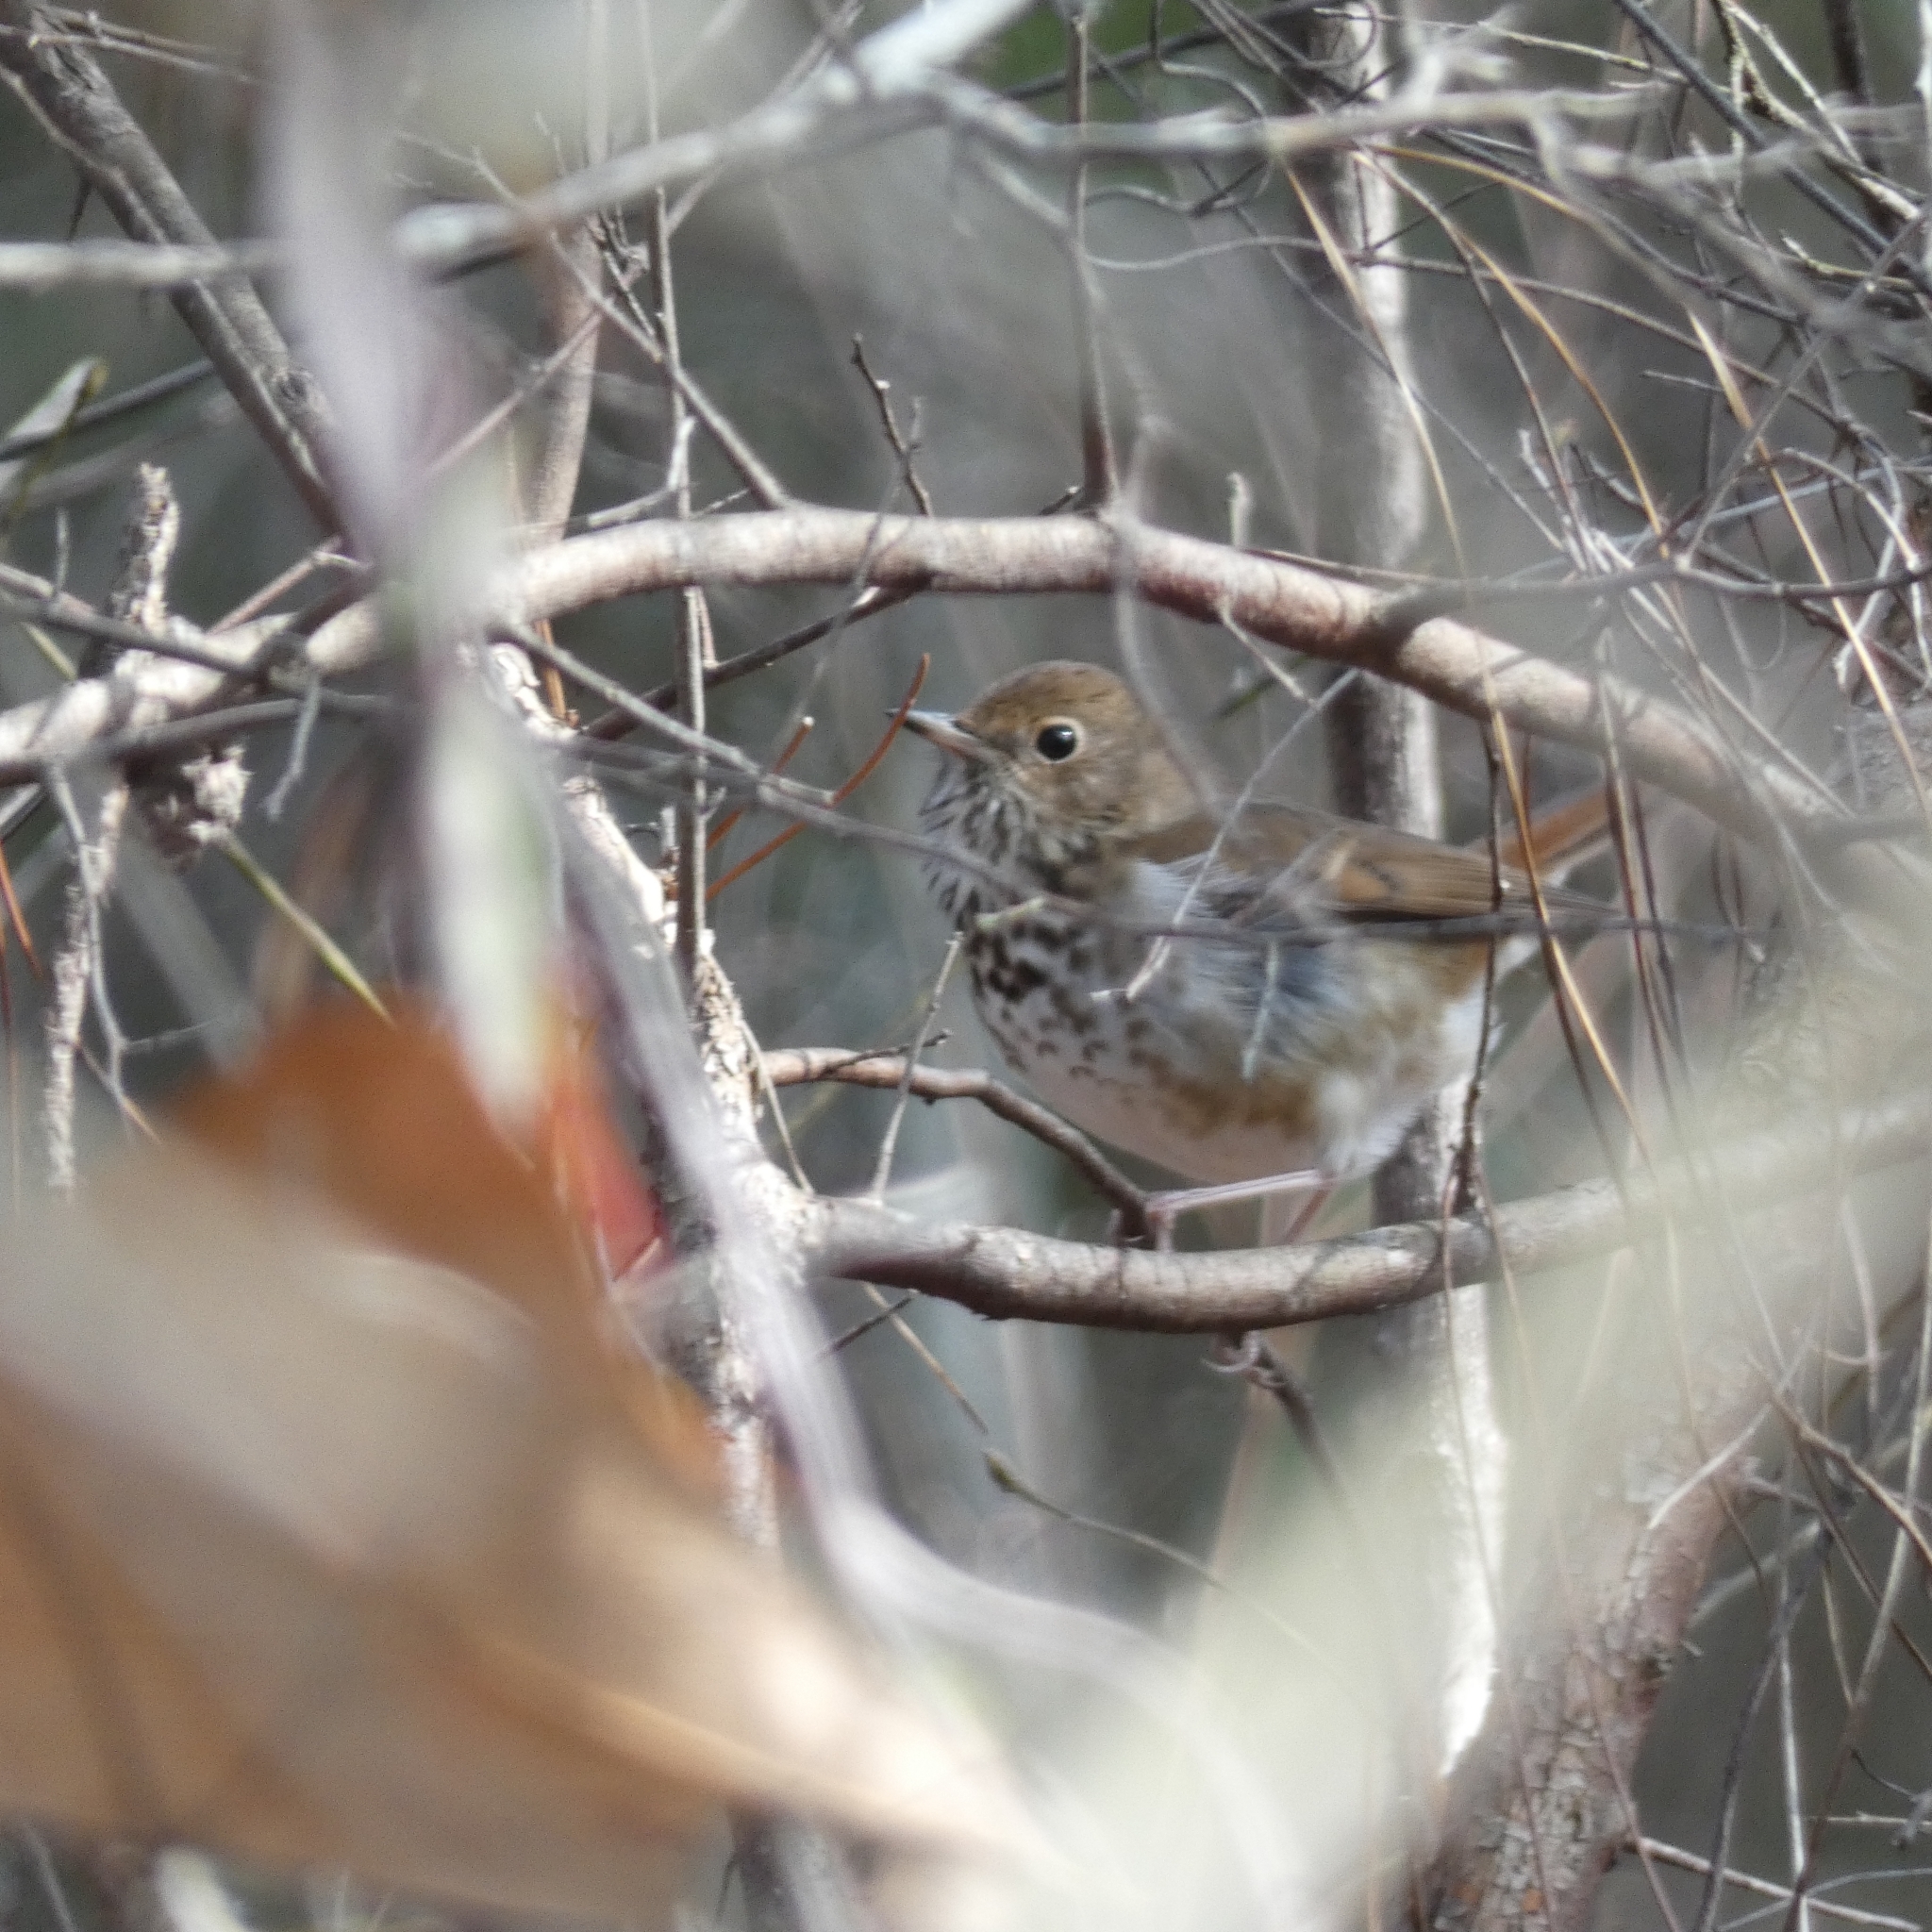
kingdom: Animalia
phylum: Chordata
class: Aves
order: Passeriformes
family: Turdidae
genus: Catharus
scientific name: Catharus guttatus
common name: Hermit thrush
